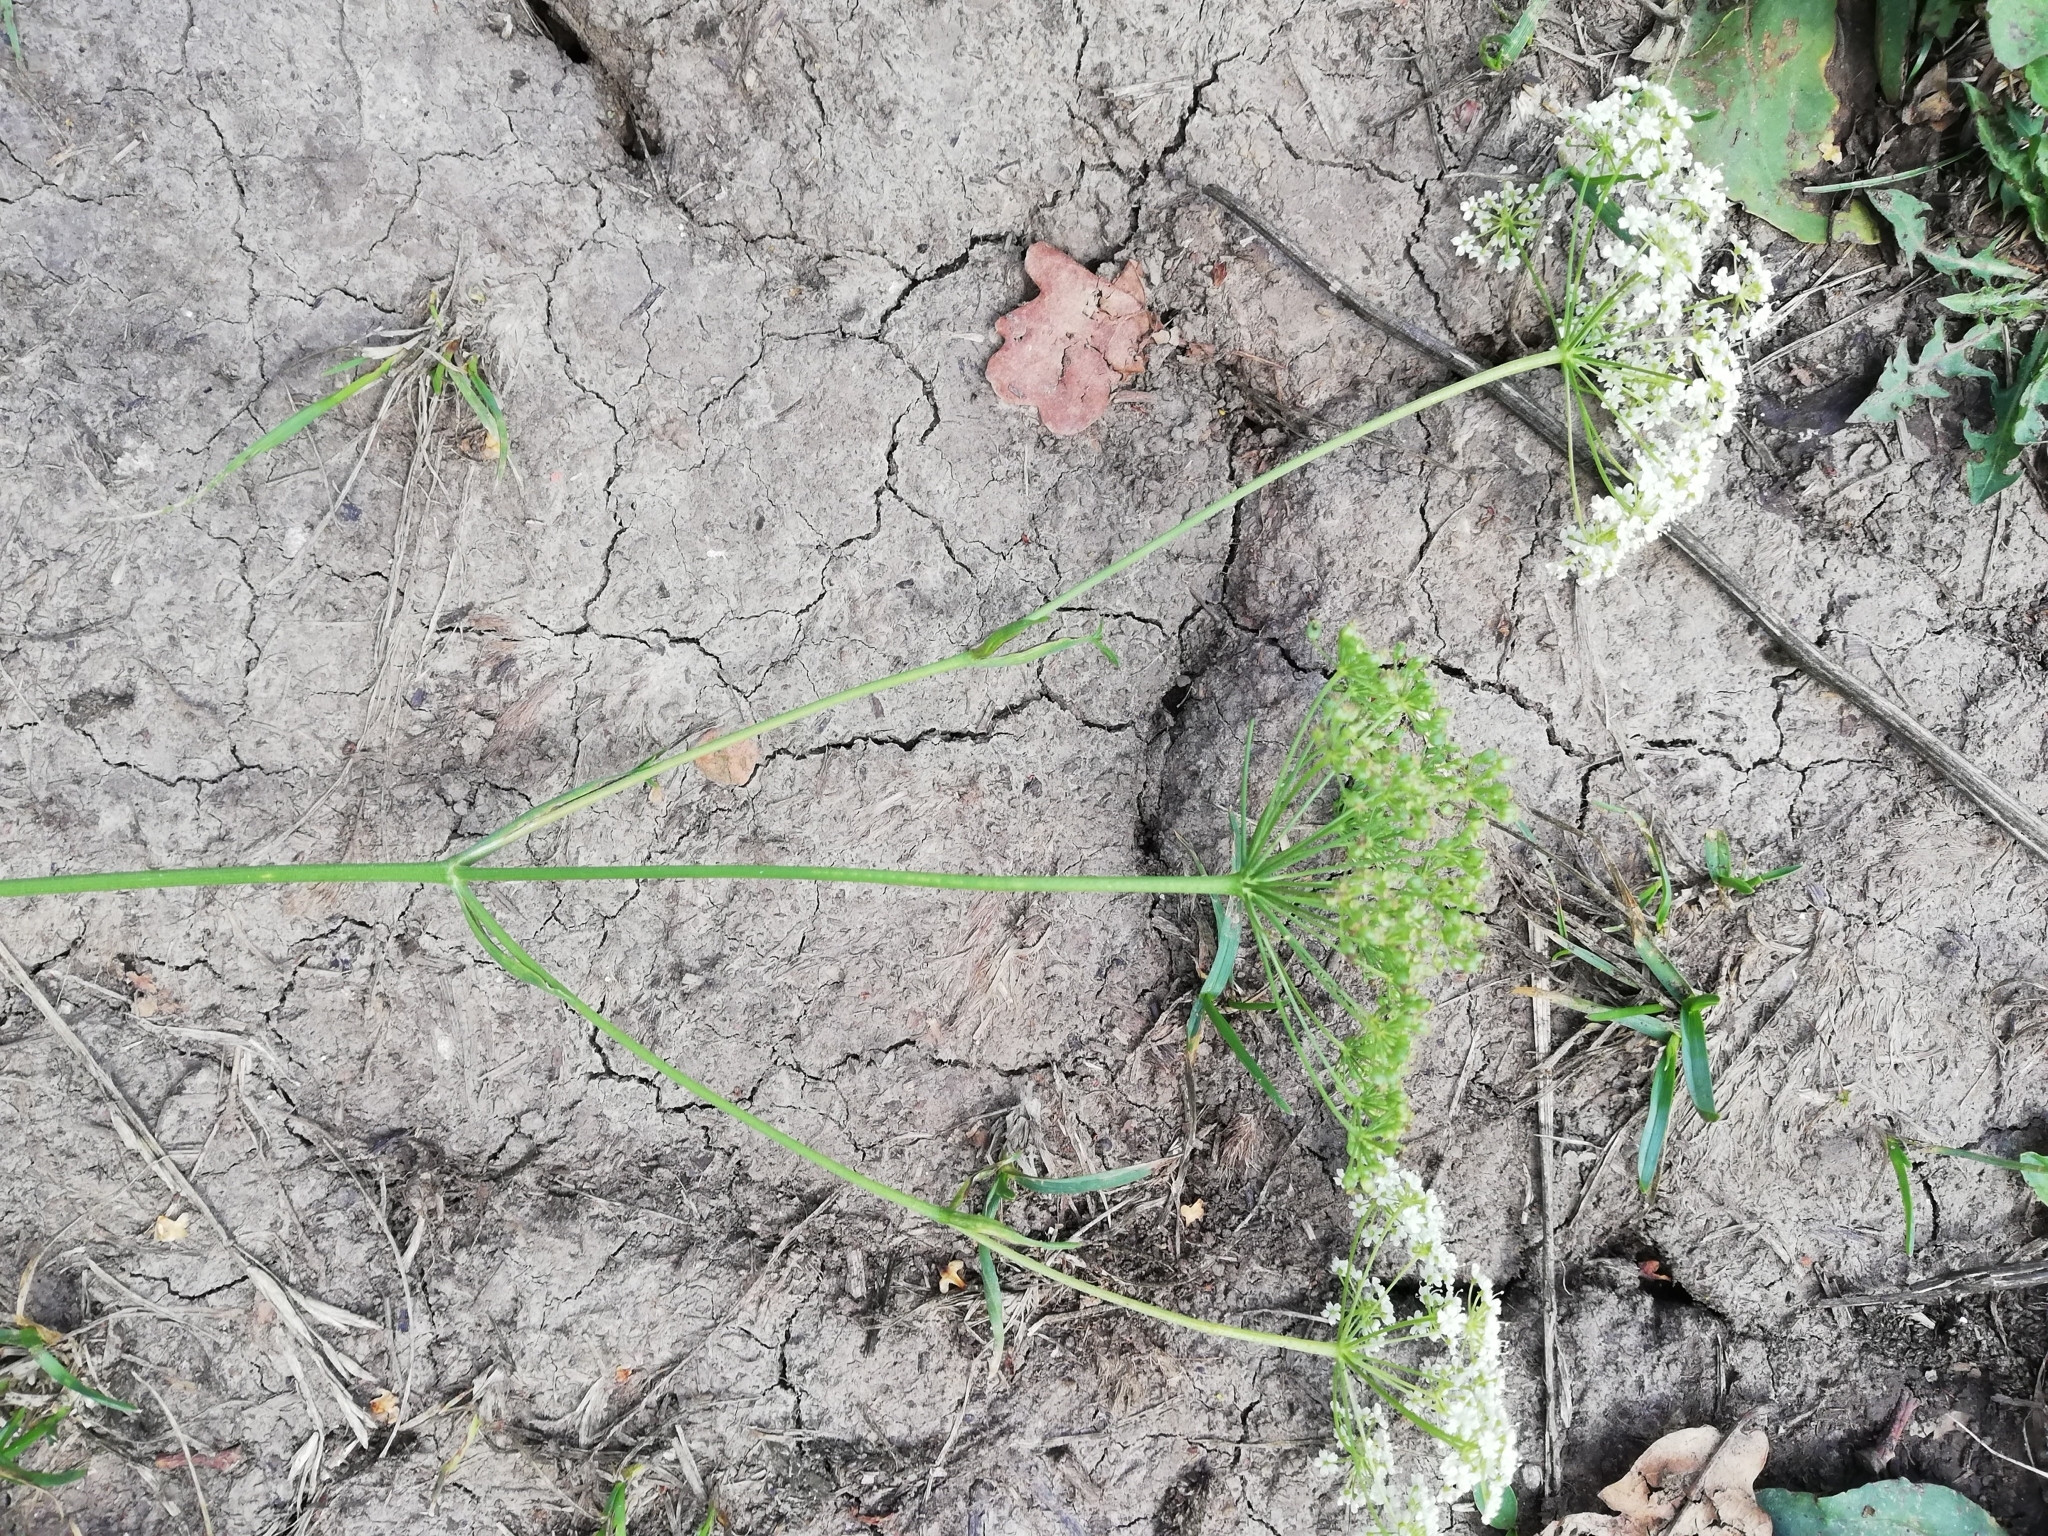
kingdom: Plantae
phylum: Tracheophyta
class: Magnoliopsida
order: Apiales
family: Apiaceae
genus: Pimpinella
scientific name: Pimpinella saxifraga
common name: Burnet-saxifrage
